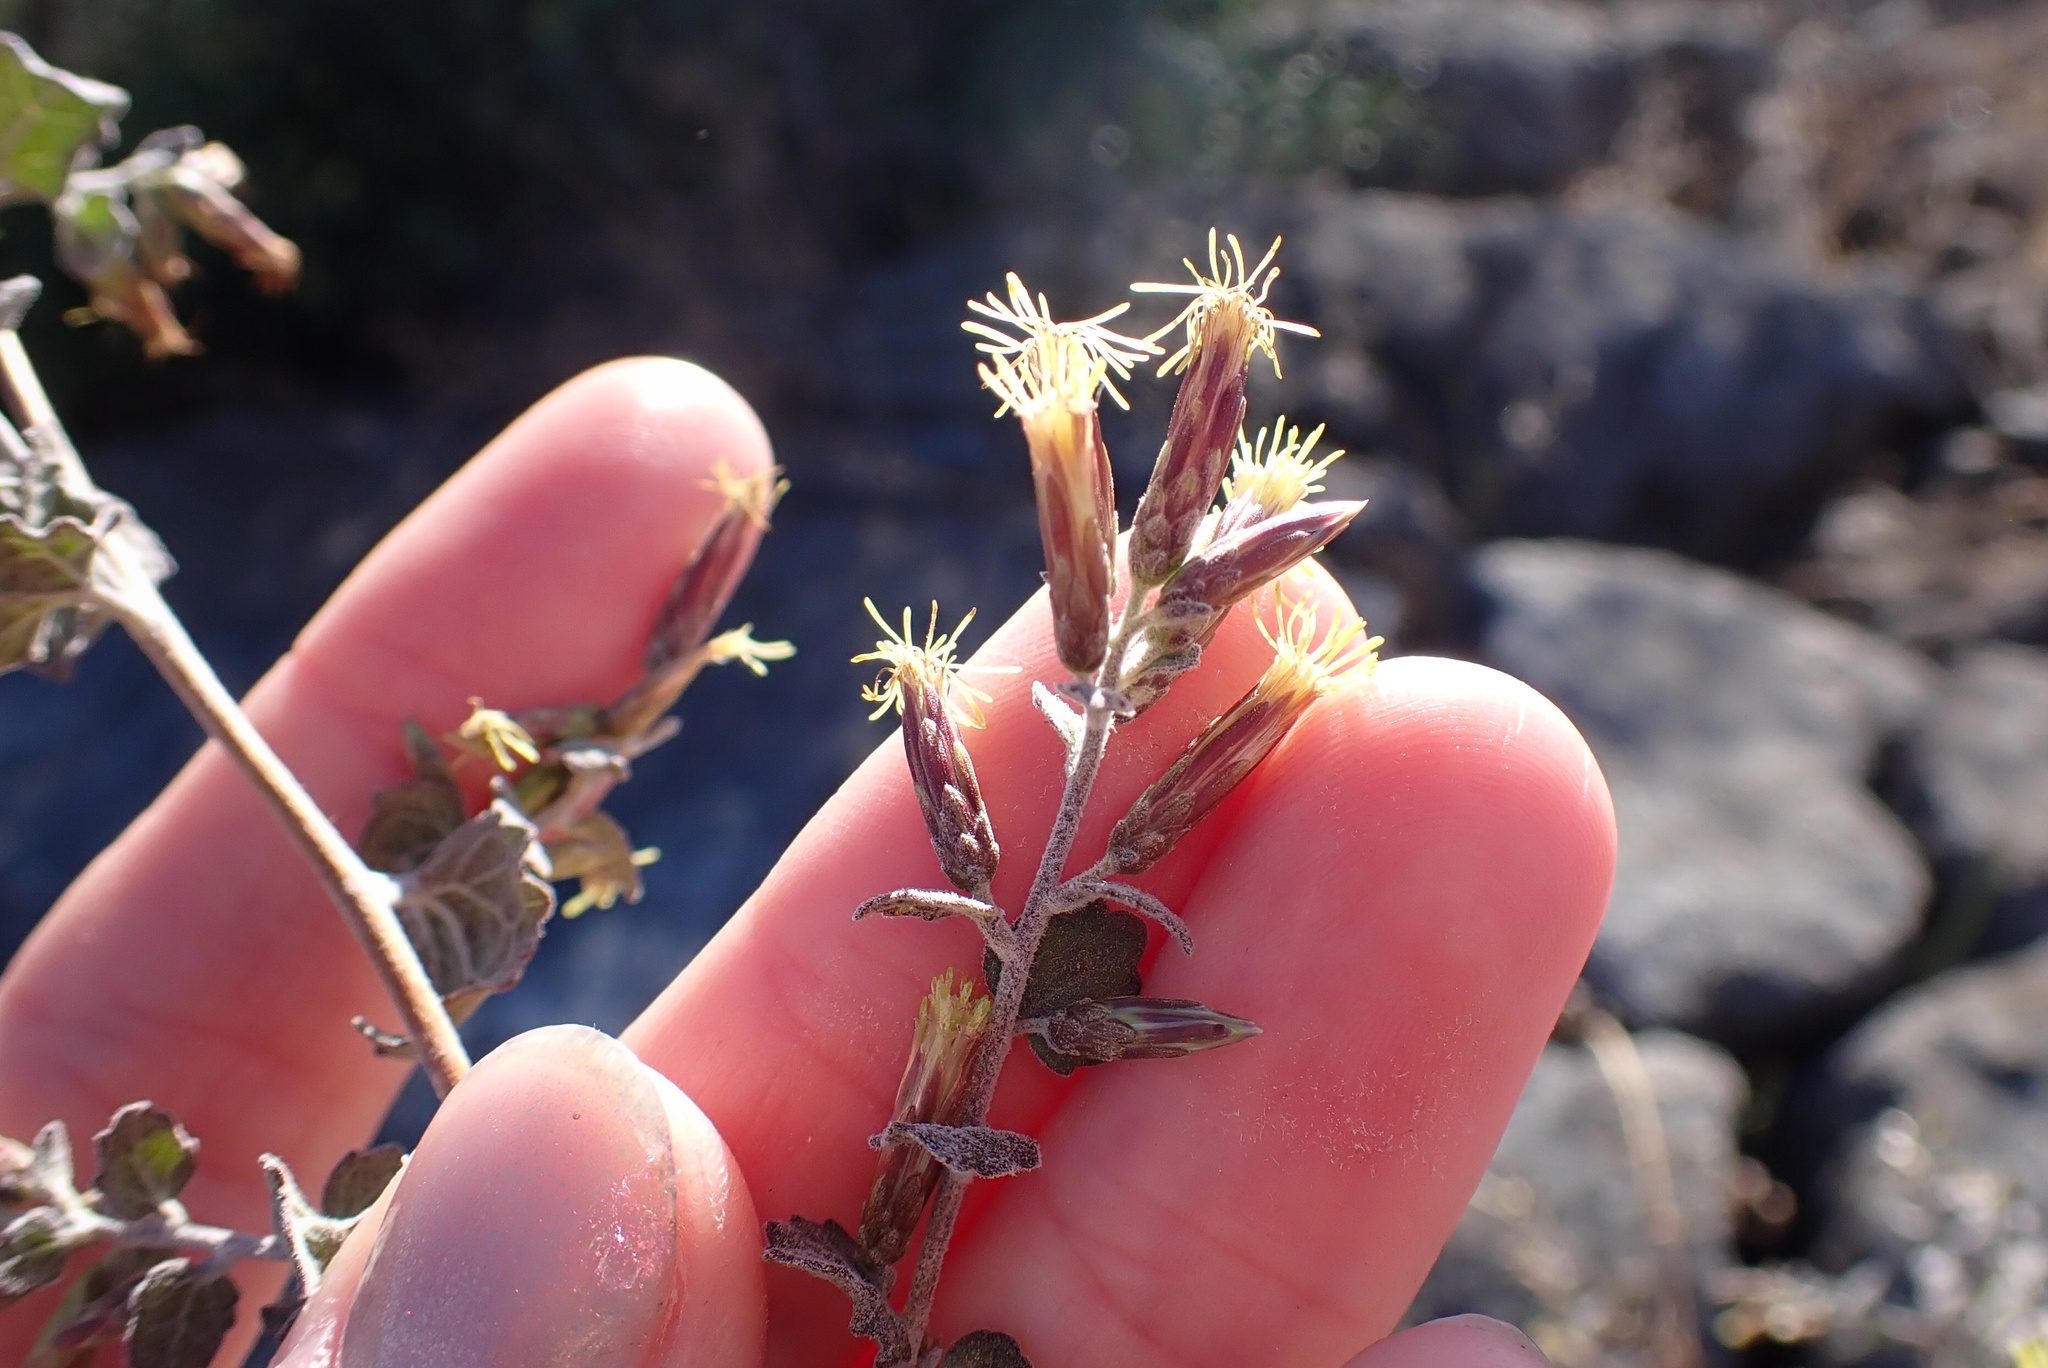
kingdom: Plantae
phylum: Tracheophyta
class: Magnoliopsida
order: Asterales
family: Asteraceae
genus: Brickellia
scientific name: Brickellia californica
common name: California brickellbush
